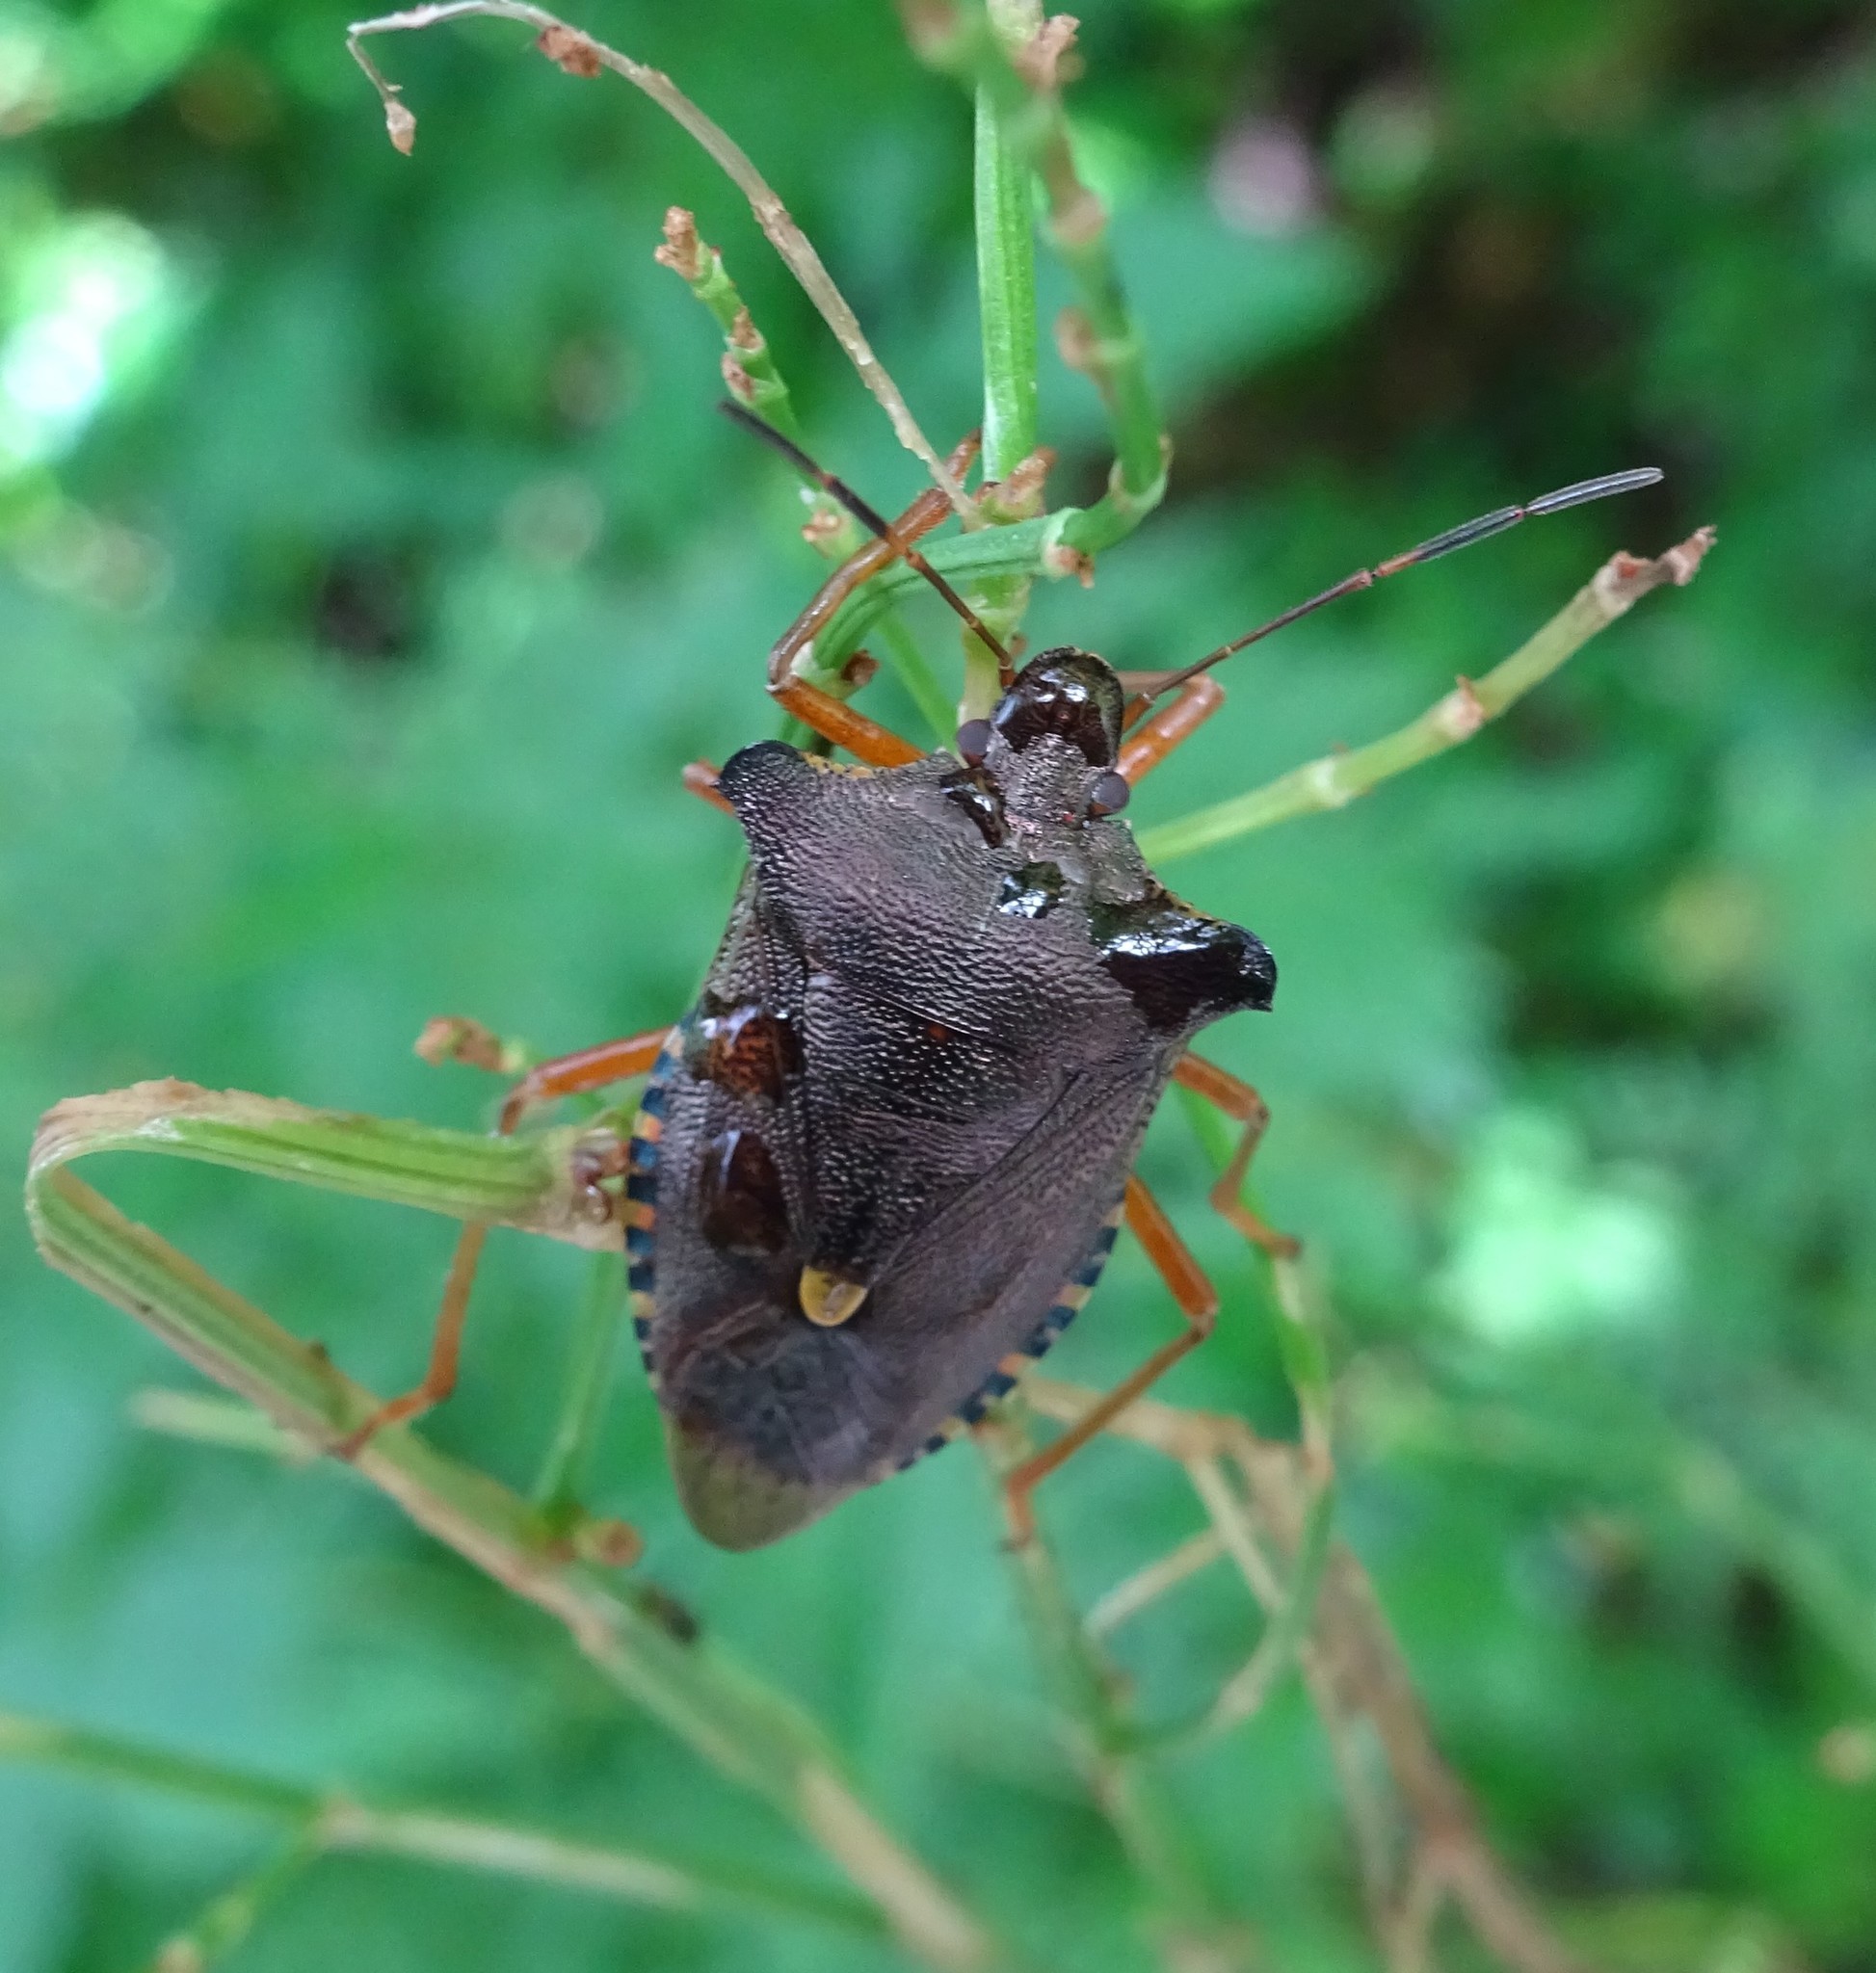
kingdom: Animalia
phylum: Arthropoda
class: Insecta
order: Hemiptera
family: Pentatomidae
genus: Pentatoma
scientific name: Pentatoma rufipes
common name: Forest bug
